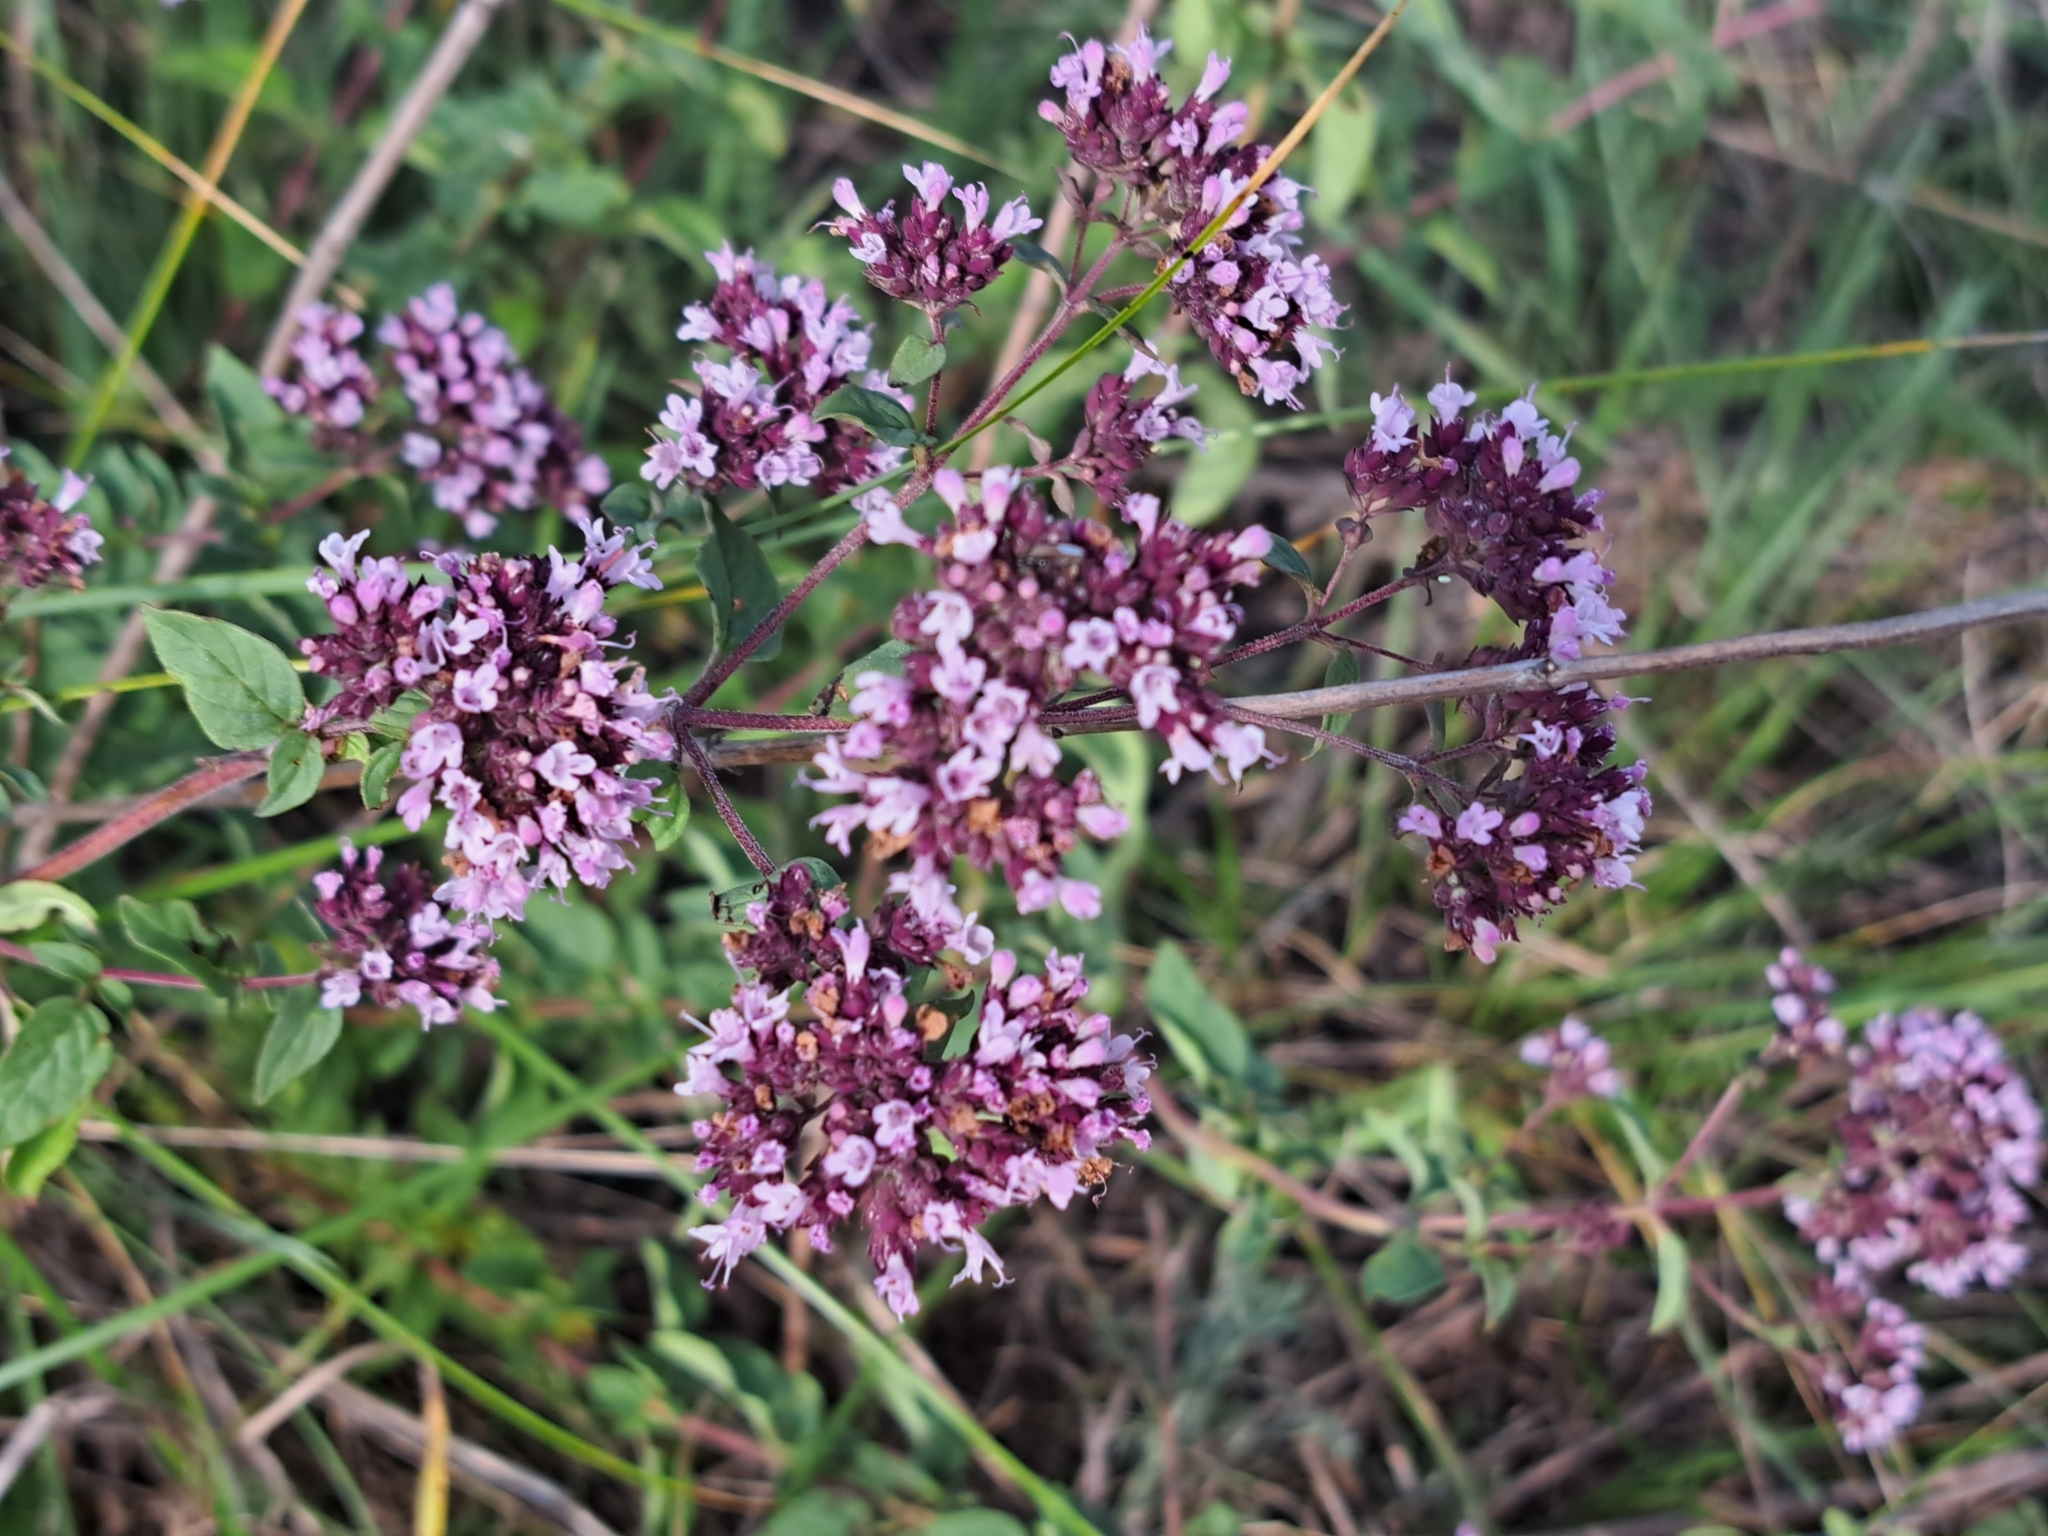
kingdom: Plantae
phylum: Tracheophyta
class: Magnoliopsida
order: Lamiales
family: Lamiaceae
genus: Origanum
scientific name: Origanum vulgare
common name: Wild marjoram
